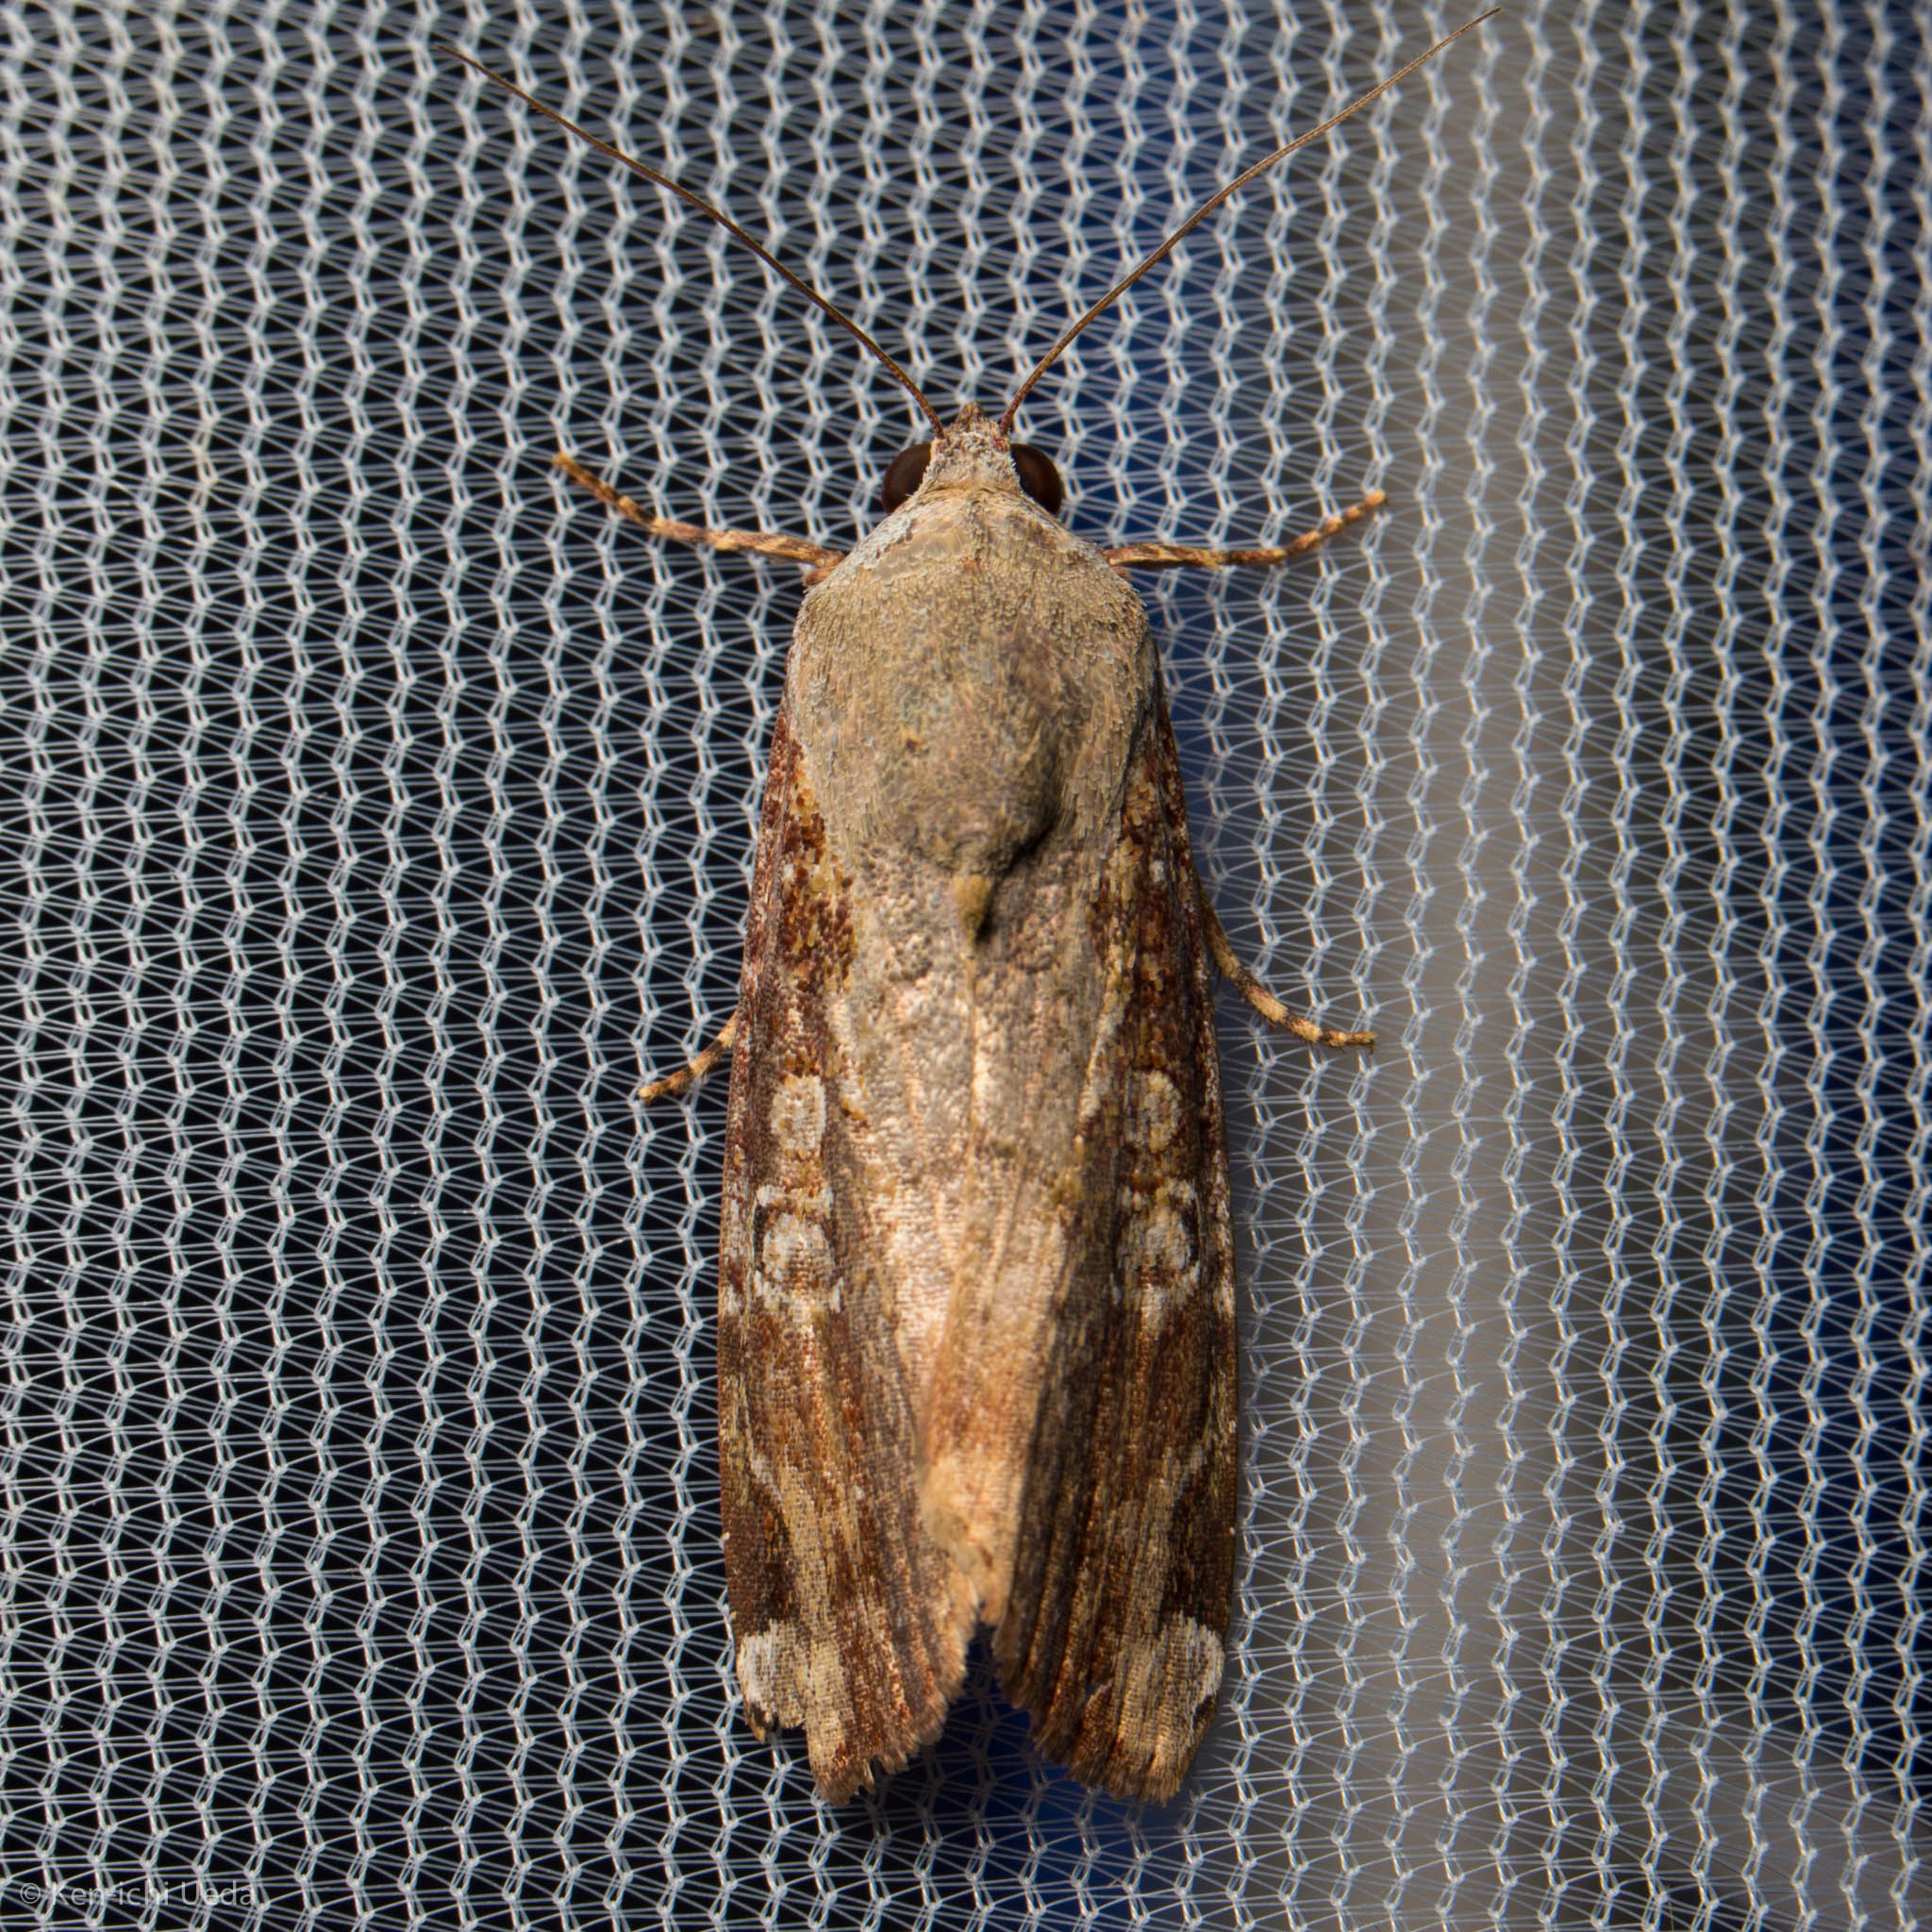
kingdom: Animalia
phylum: Arthropoda
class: Insecta
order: Lepidoptera
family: Noctuidae
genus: Magusa
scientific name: Magusa divaricata
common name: Orb narrow-winged moth
